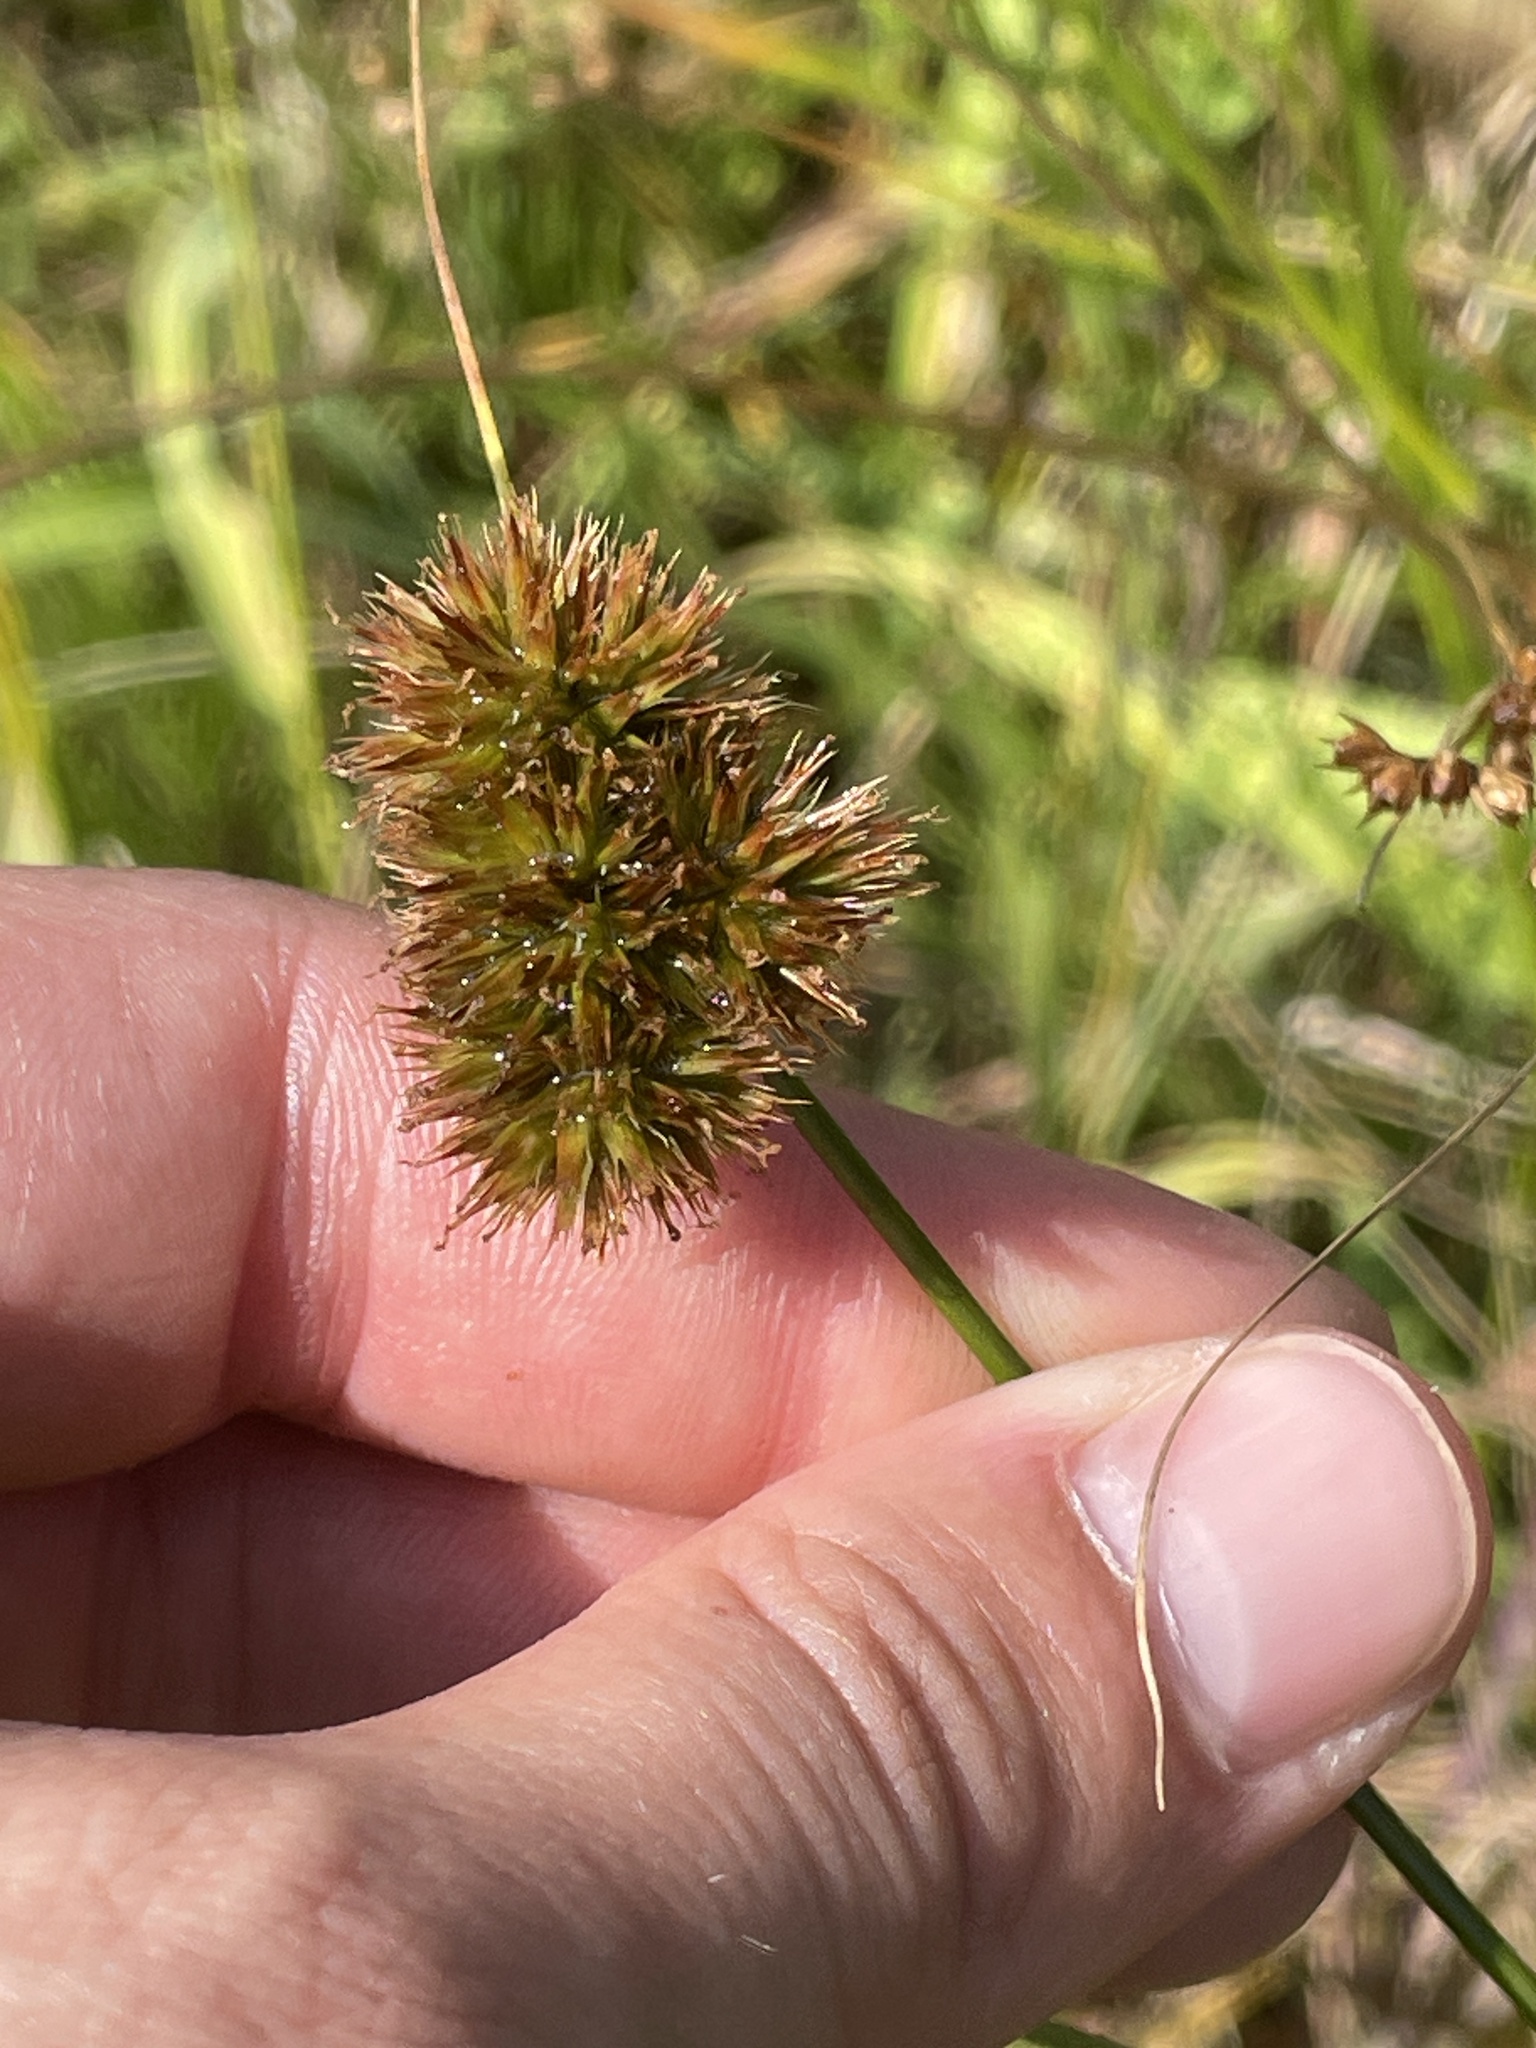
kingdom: Plantae
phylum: Tracheophyta
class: Liliopsida
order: Poales
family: Juncaceae
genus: Juncus
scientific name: Juncus torreyi
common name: Torrey's rush
